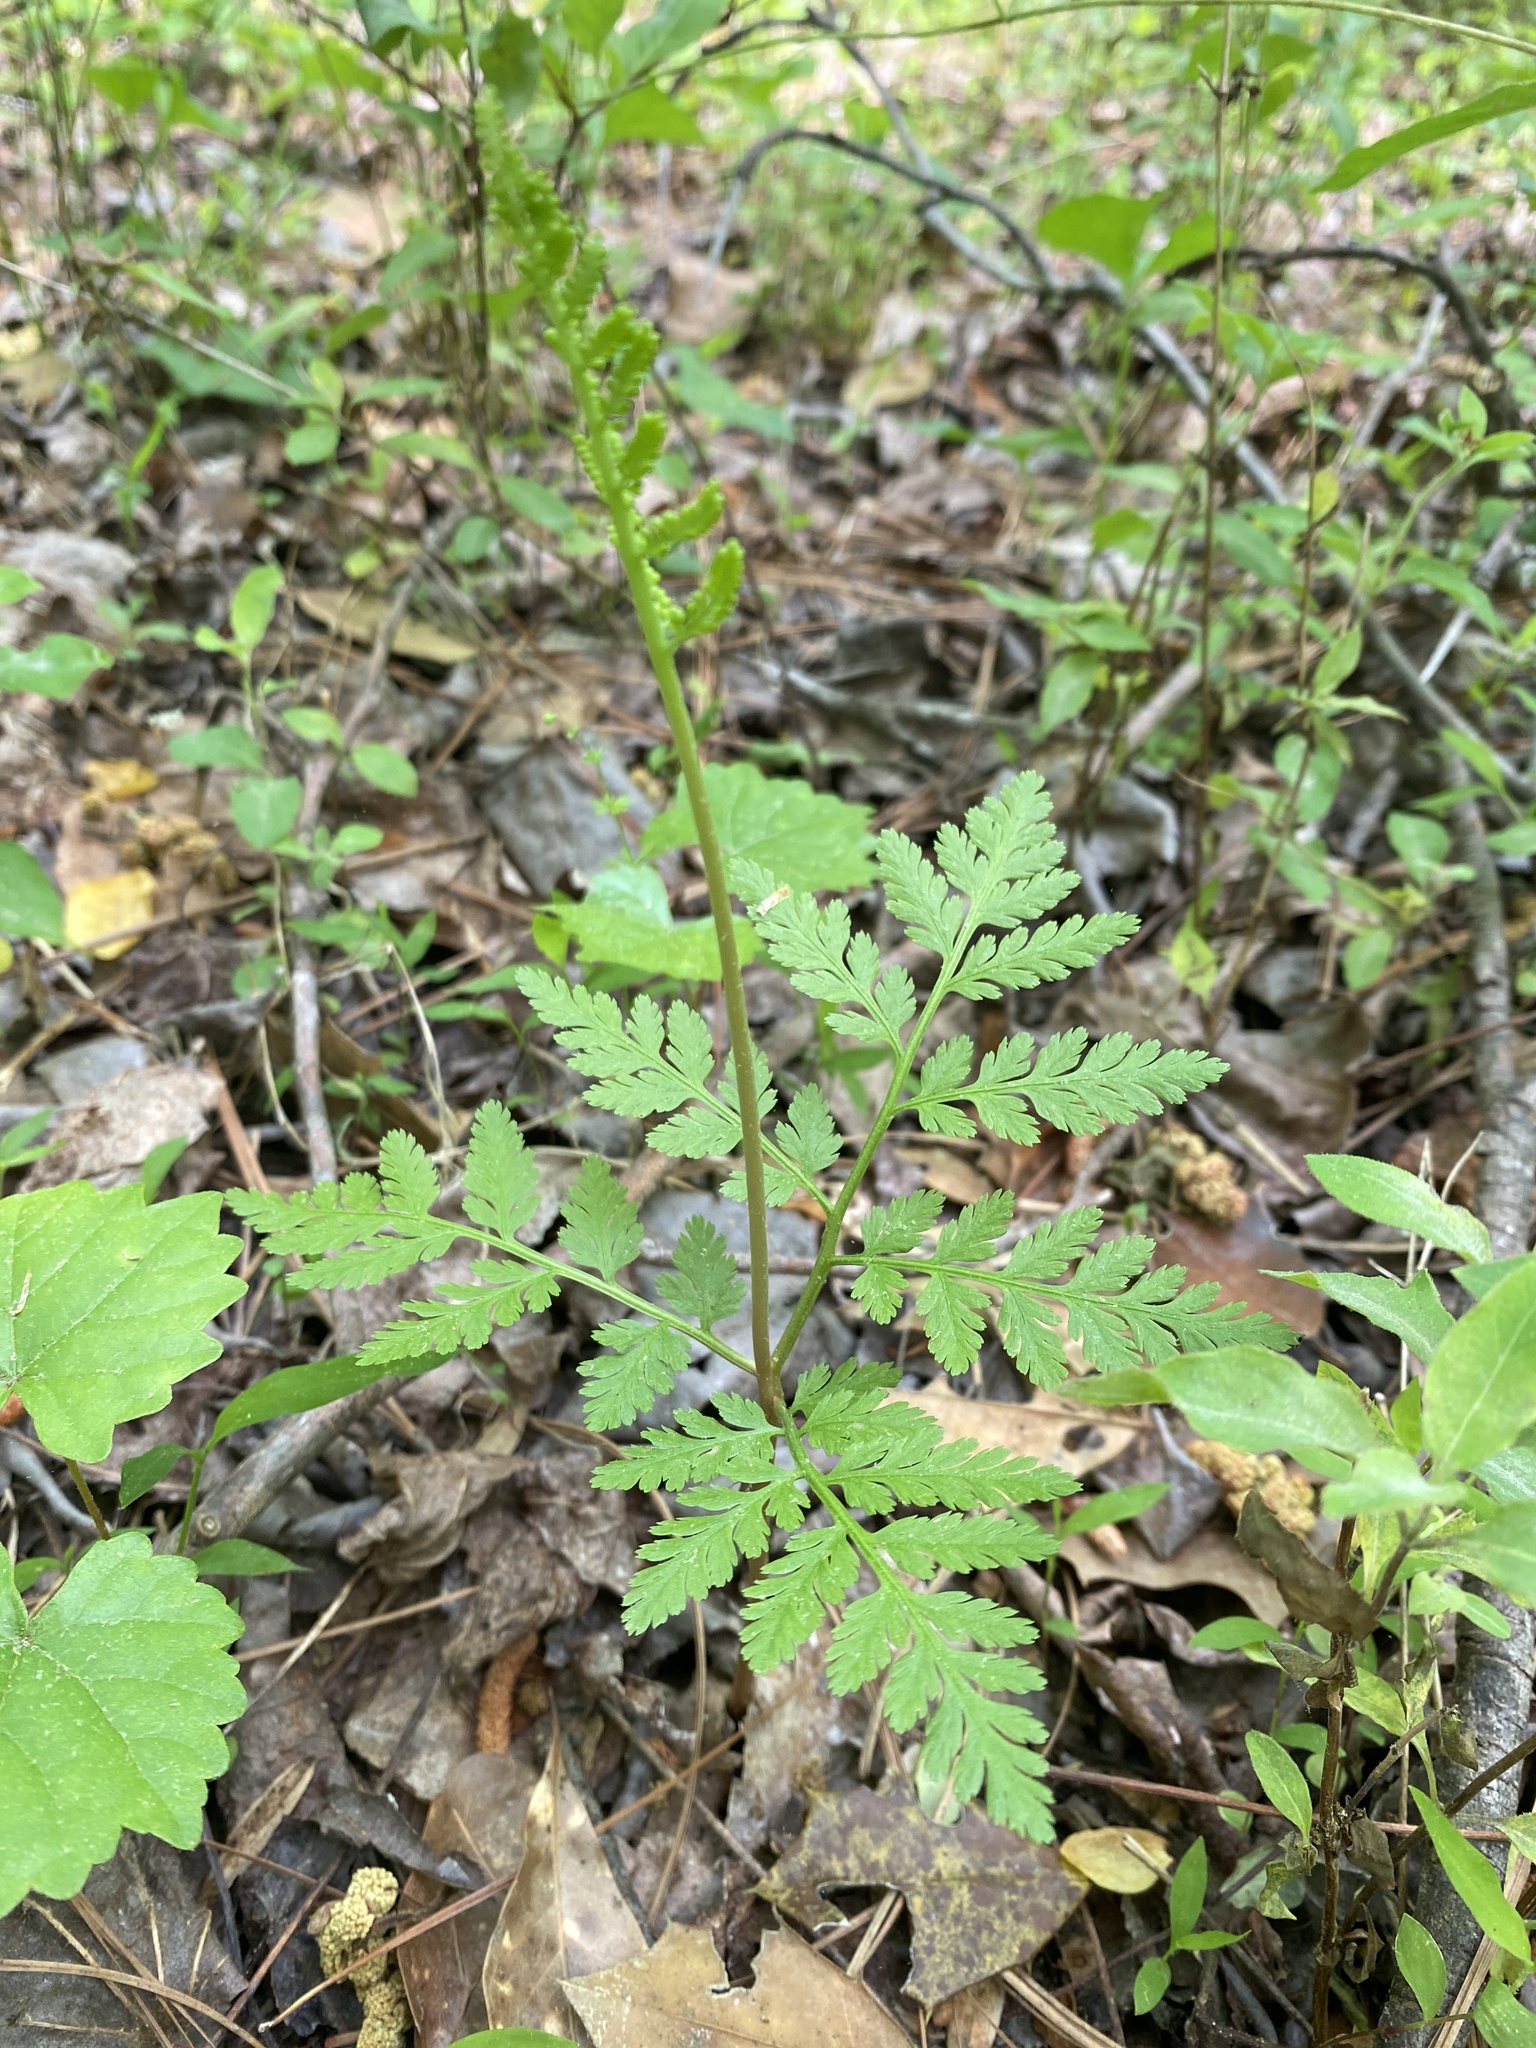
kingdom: Plantae
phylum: Tracheophyta
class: Polypodiopsida
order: Ophioglossales
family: Ophioglossaceae
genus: Botrypus
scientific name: Botrypus virginianus
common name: Common grapefern
